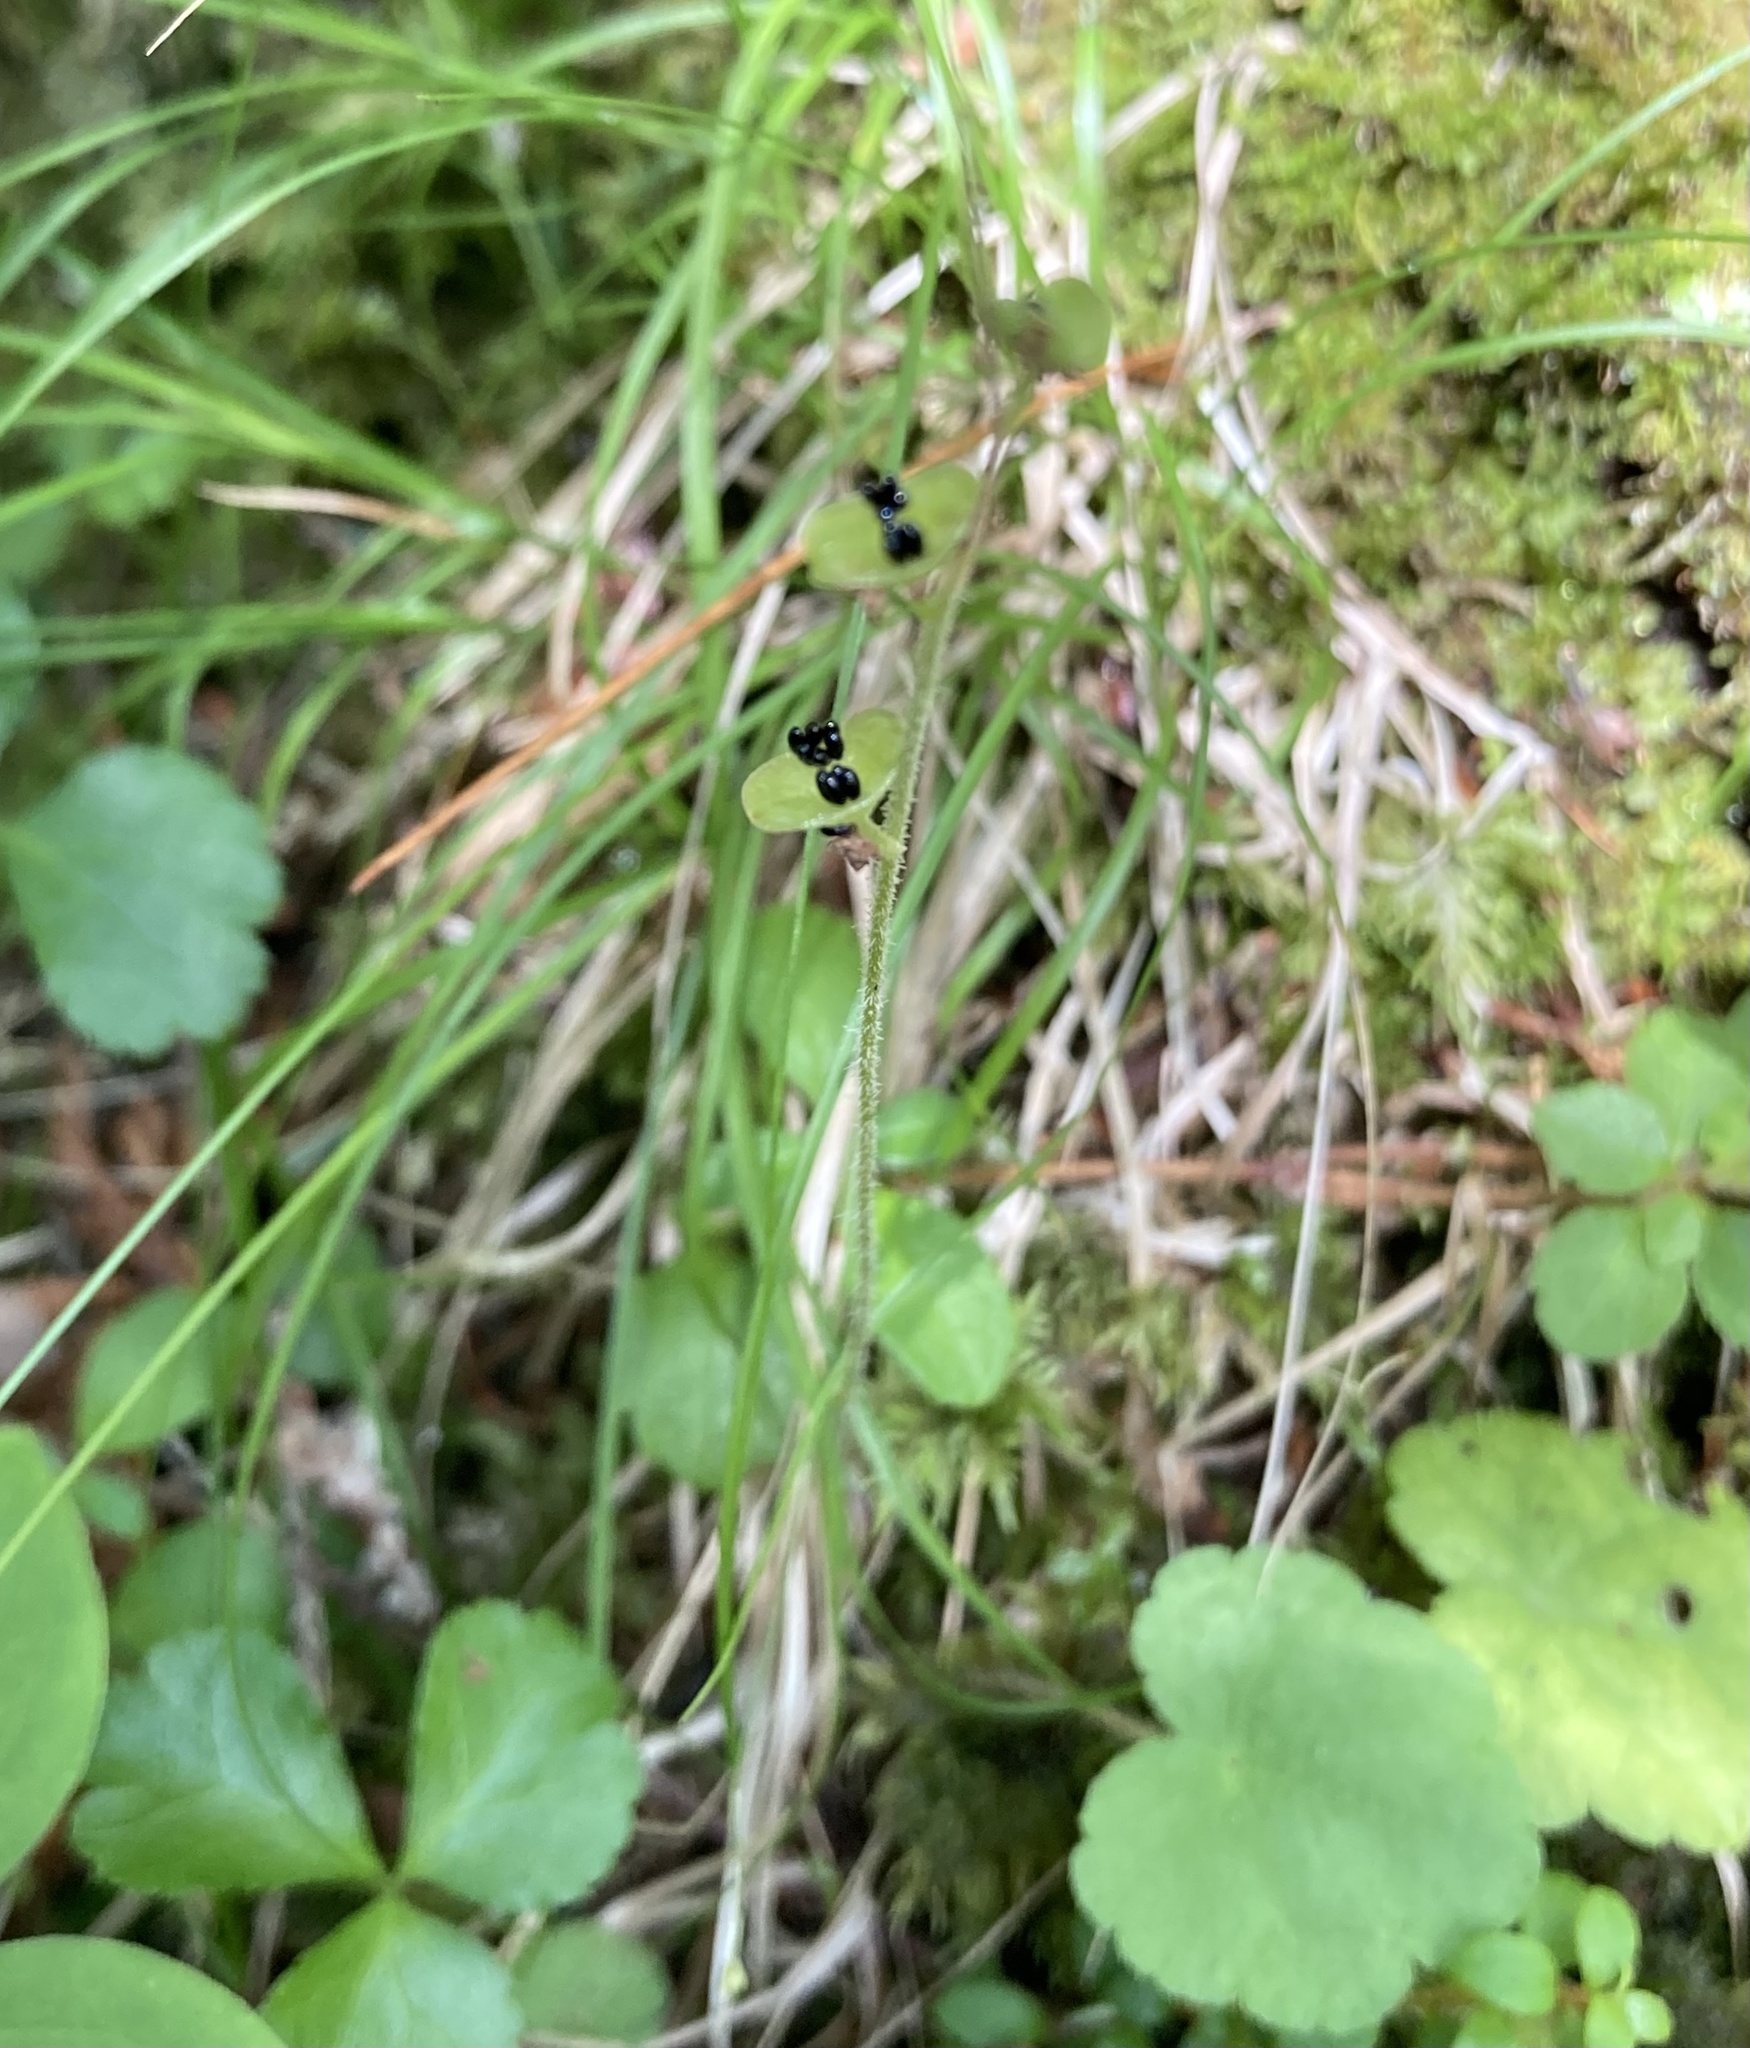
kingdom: Plantae
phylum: Tracheophyta
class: Magnoliopsida
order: Saxifragales
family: Saxifragaceae
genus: Mitella
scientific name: Mitella nuda
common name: Bare-stemmed bishop's-cap
